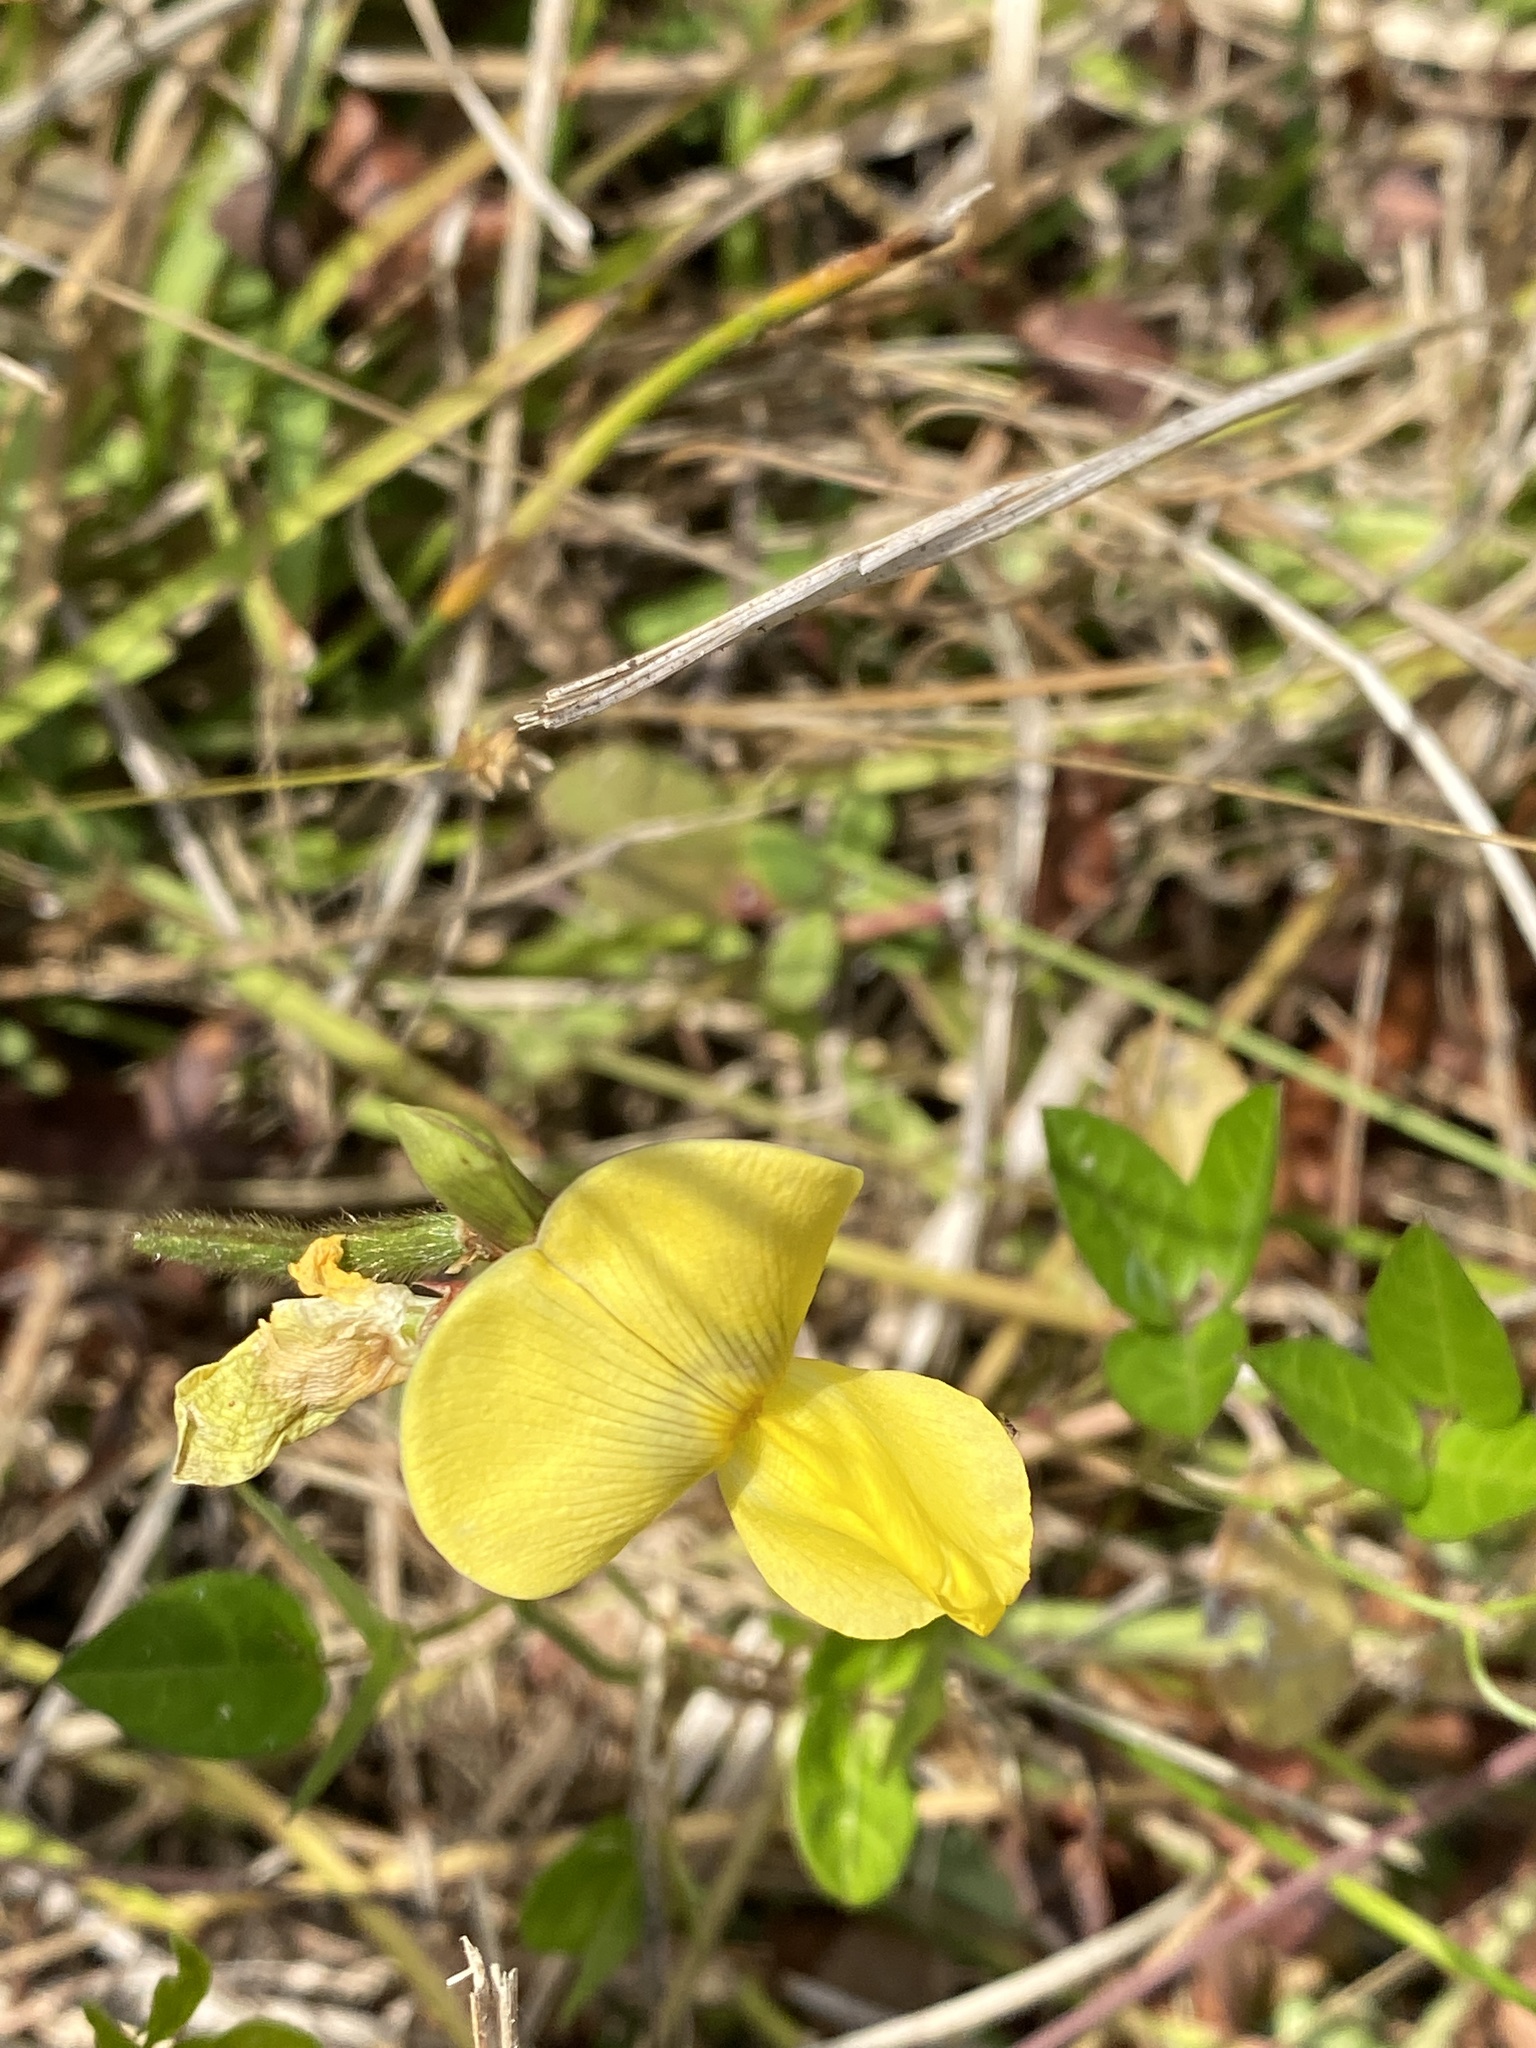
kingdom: Plantae
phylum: Tracheophyta
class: Magnoliopsida
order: Fabales
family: Fabaceae
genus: Vigna
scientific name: Vigna luteola
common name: Hairypod cowpea
